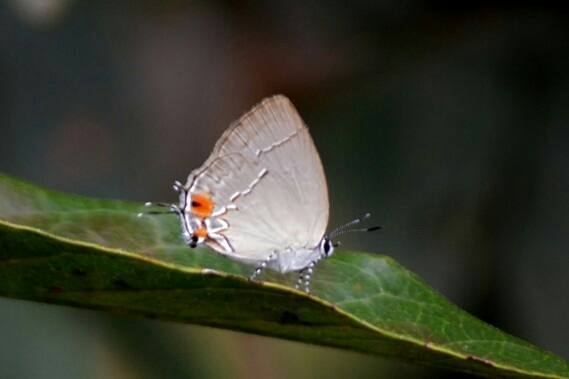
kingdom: Animalia
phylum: Arthropoda
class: Insecta
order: Lepidoptera
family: Lycaenidae
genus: Thecla
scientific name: Thecla lydus
